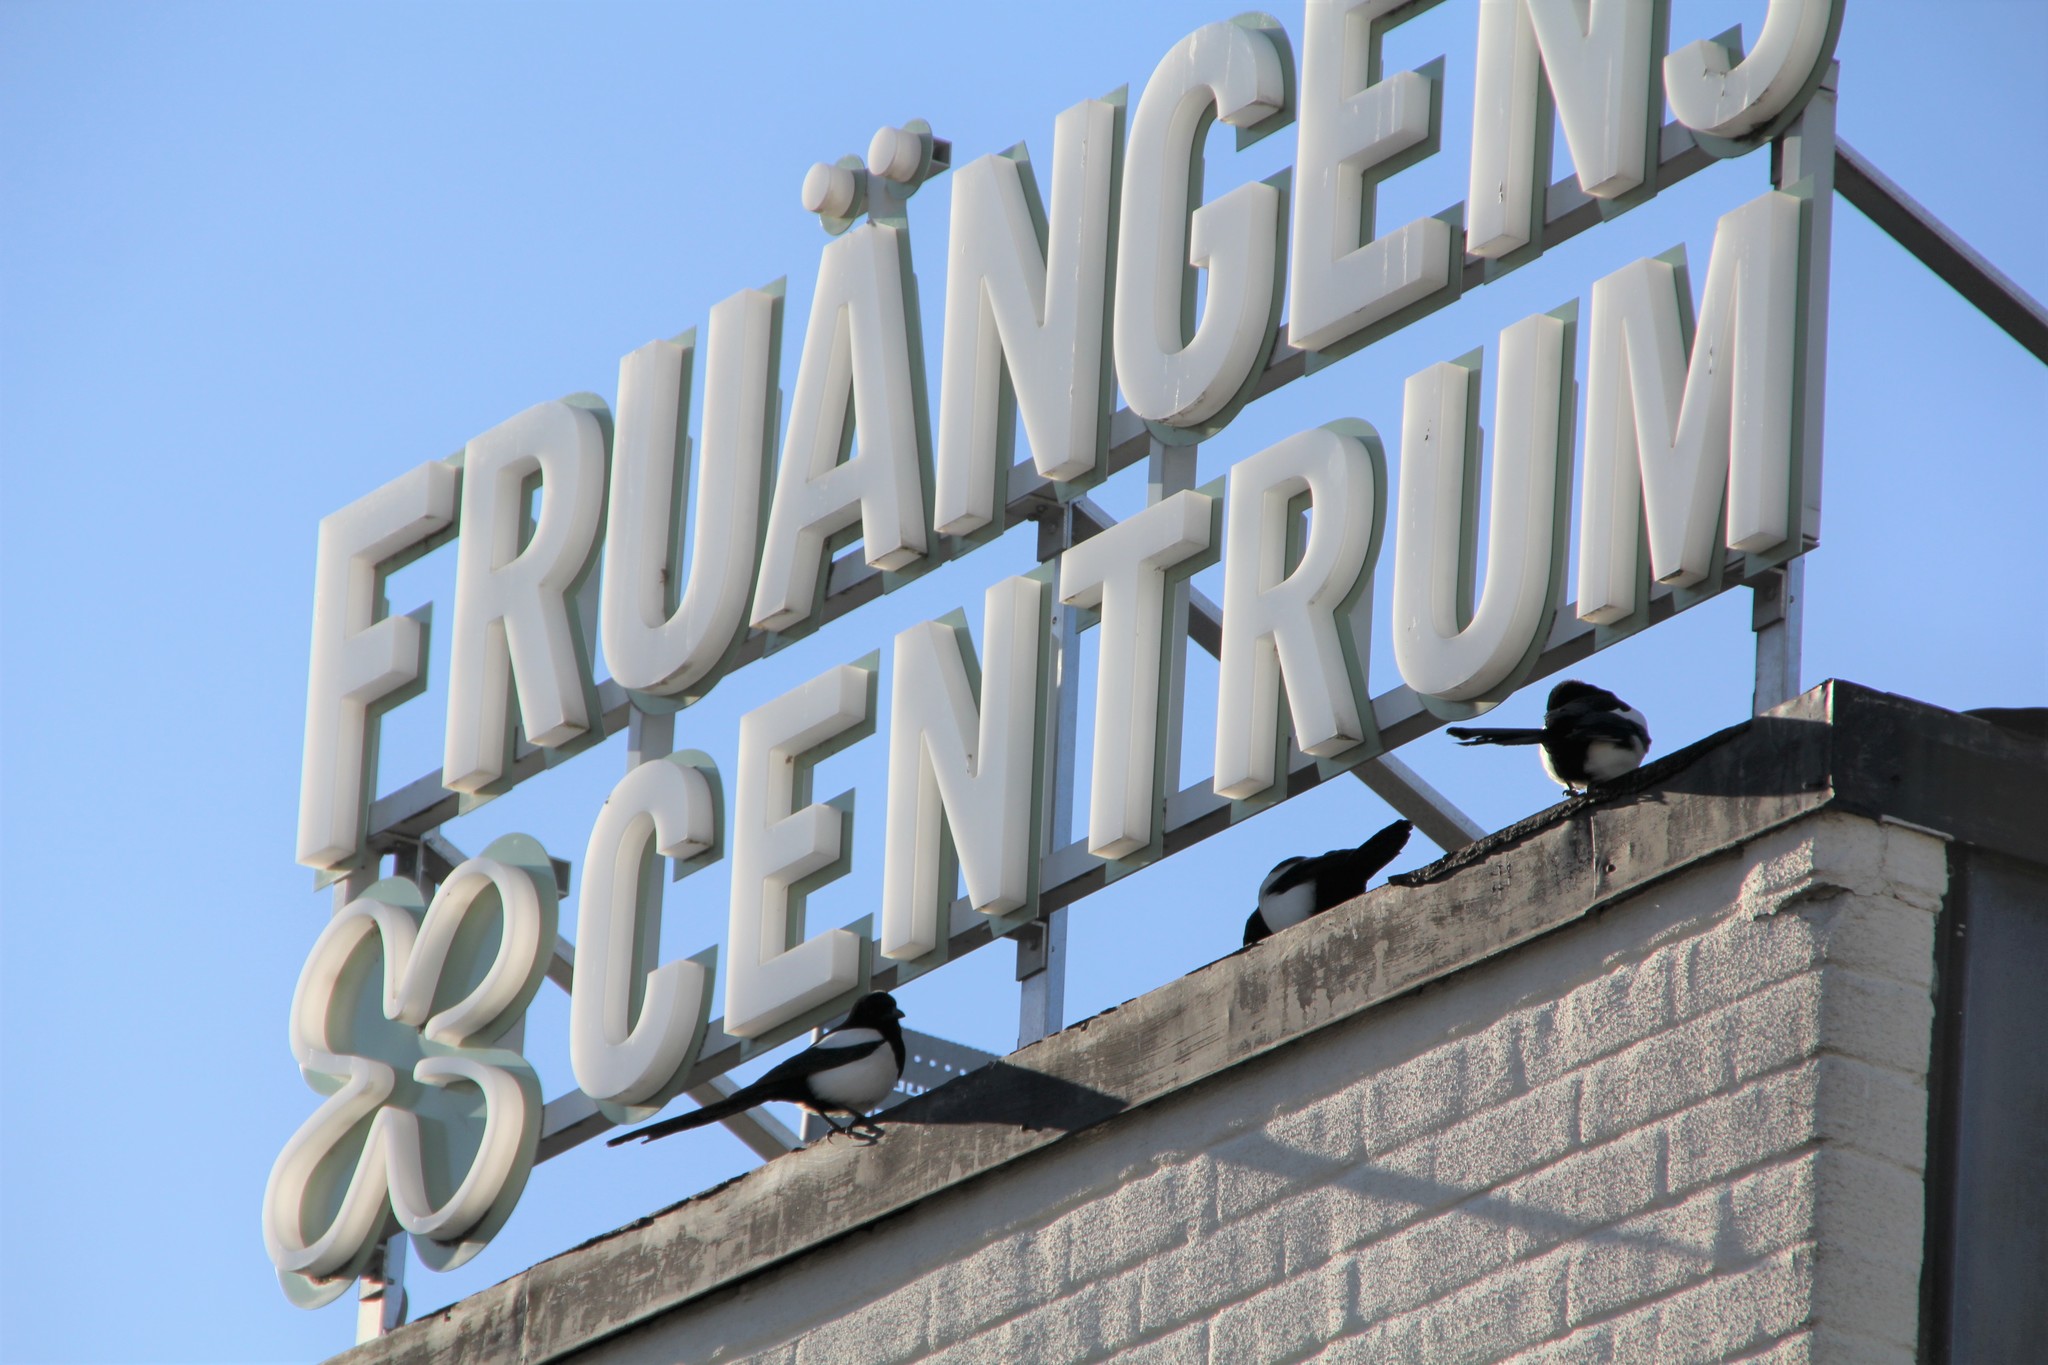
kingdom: Animalia
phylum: Chordata
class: Aves
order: Passeriformes
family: Corvidae
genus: Pica
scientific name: Pica pica
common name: Eurasian magpie
